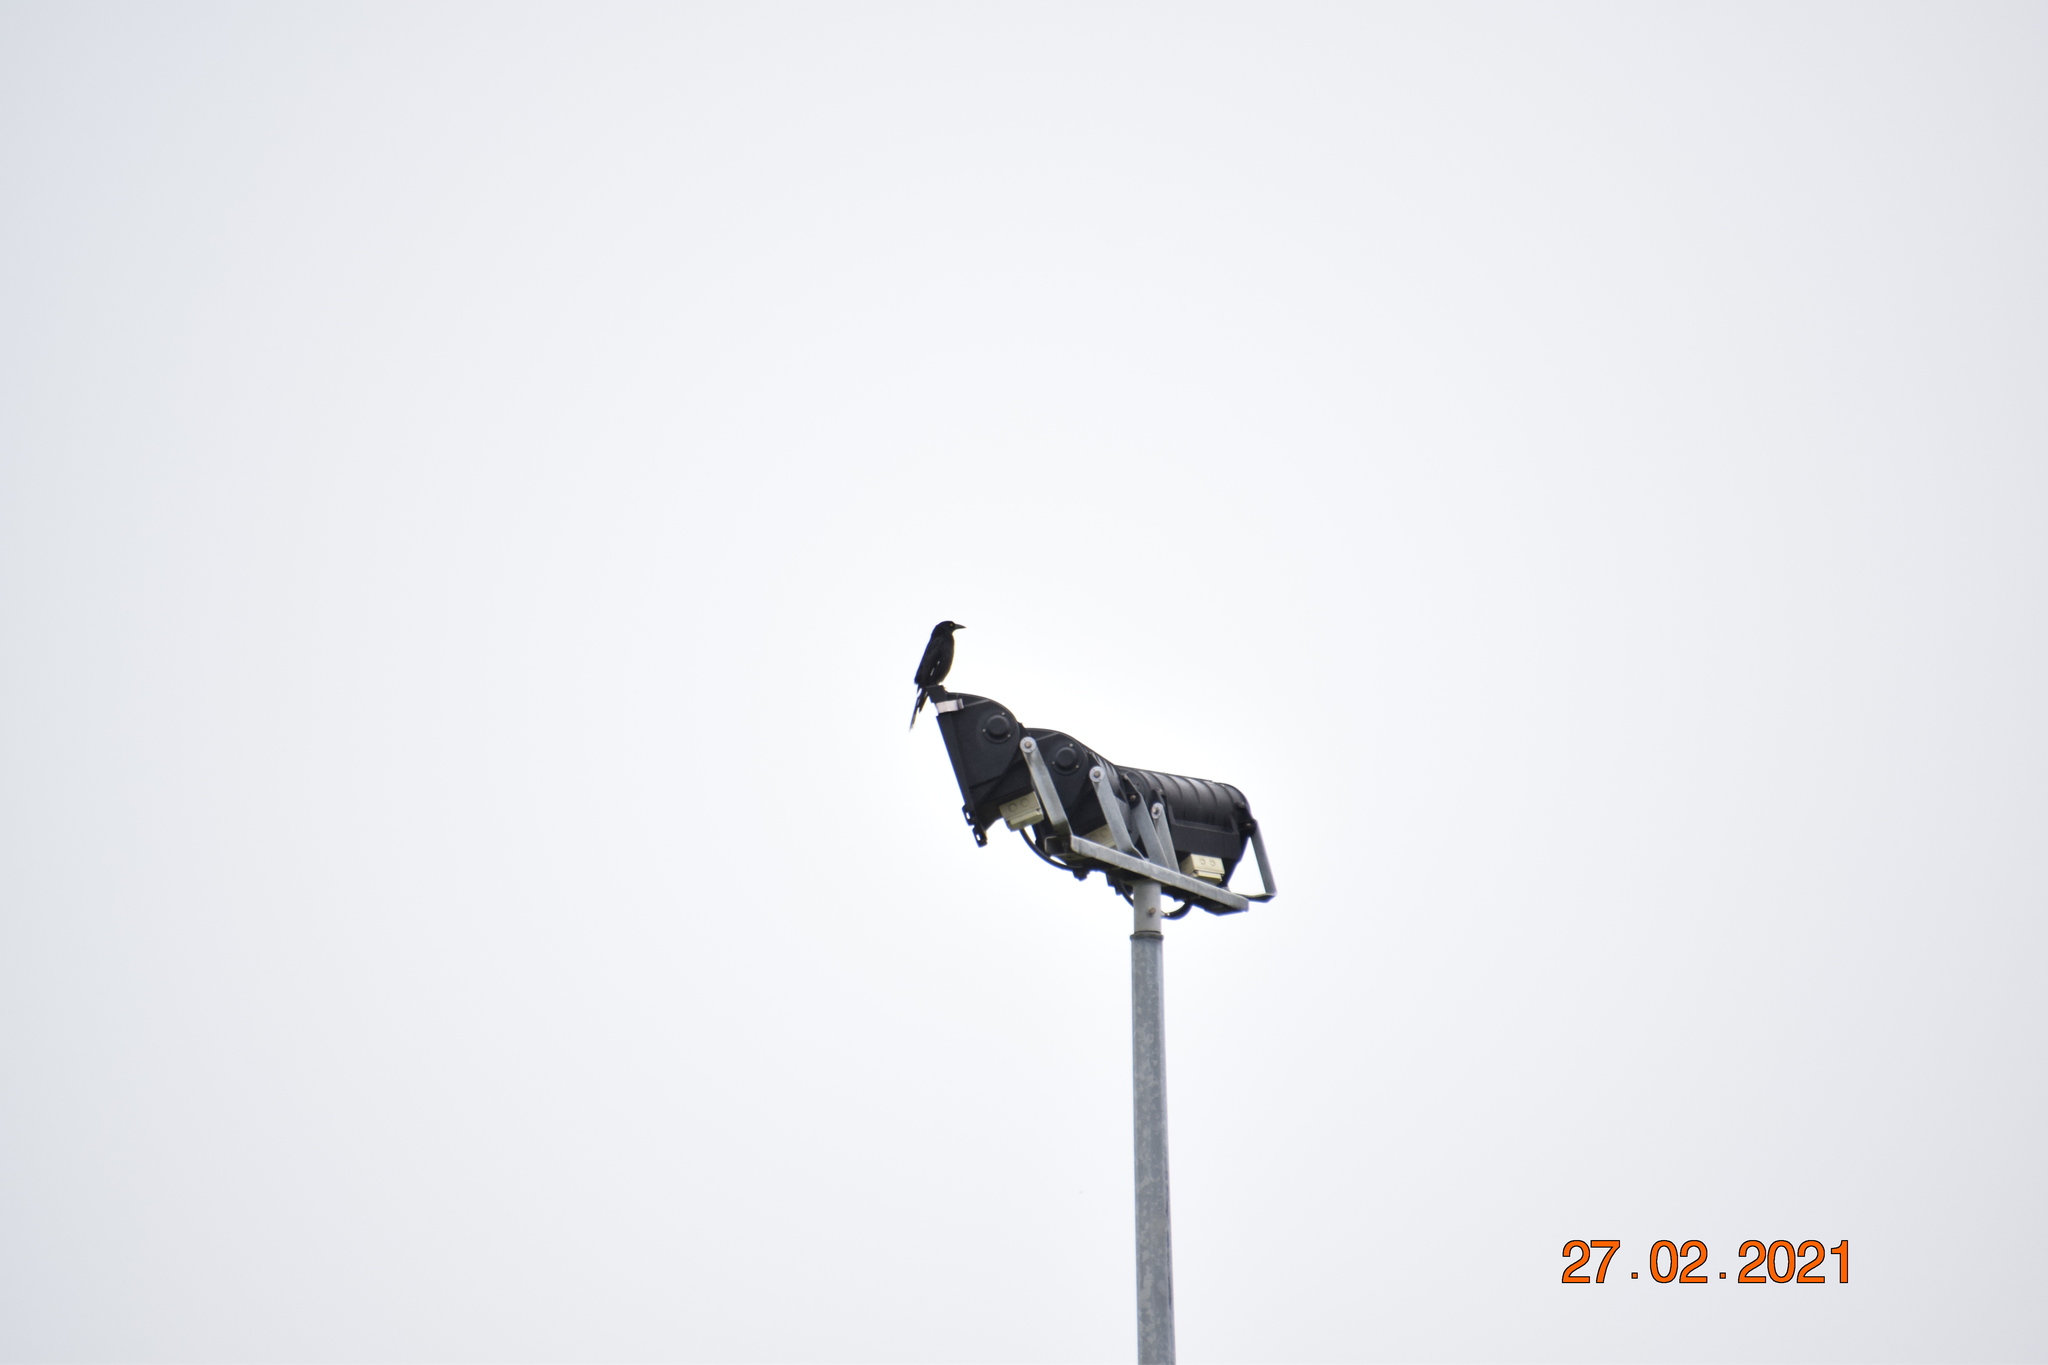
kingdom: Animalia
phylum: Chordata
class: Aves
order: Passeriformes
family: Cracticidae
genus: Strepera
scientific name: Strepera graculina
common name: Pied currawong
